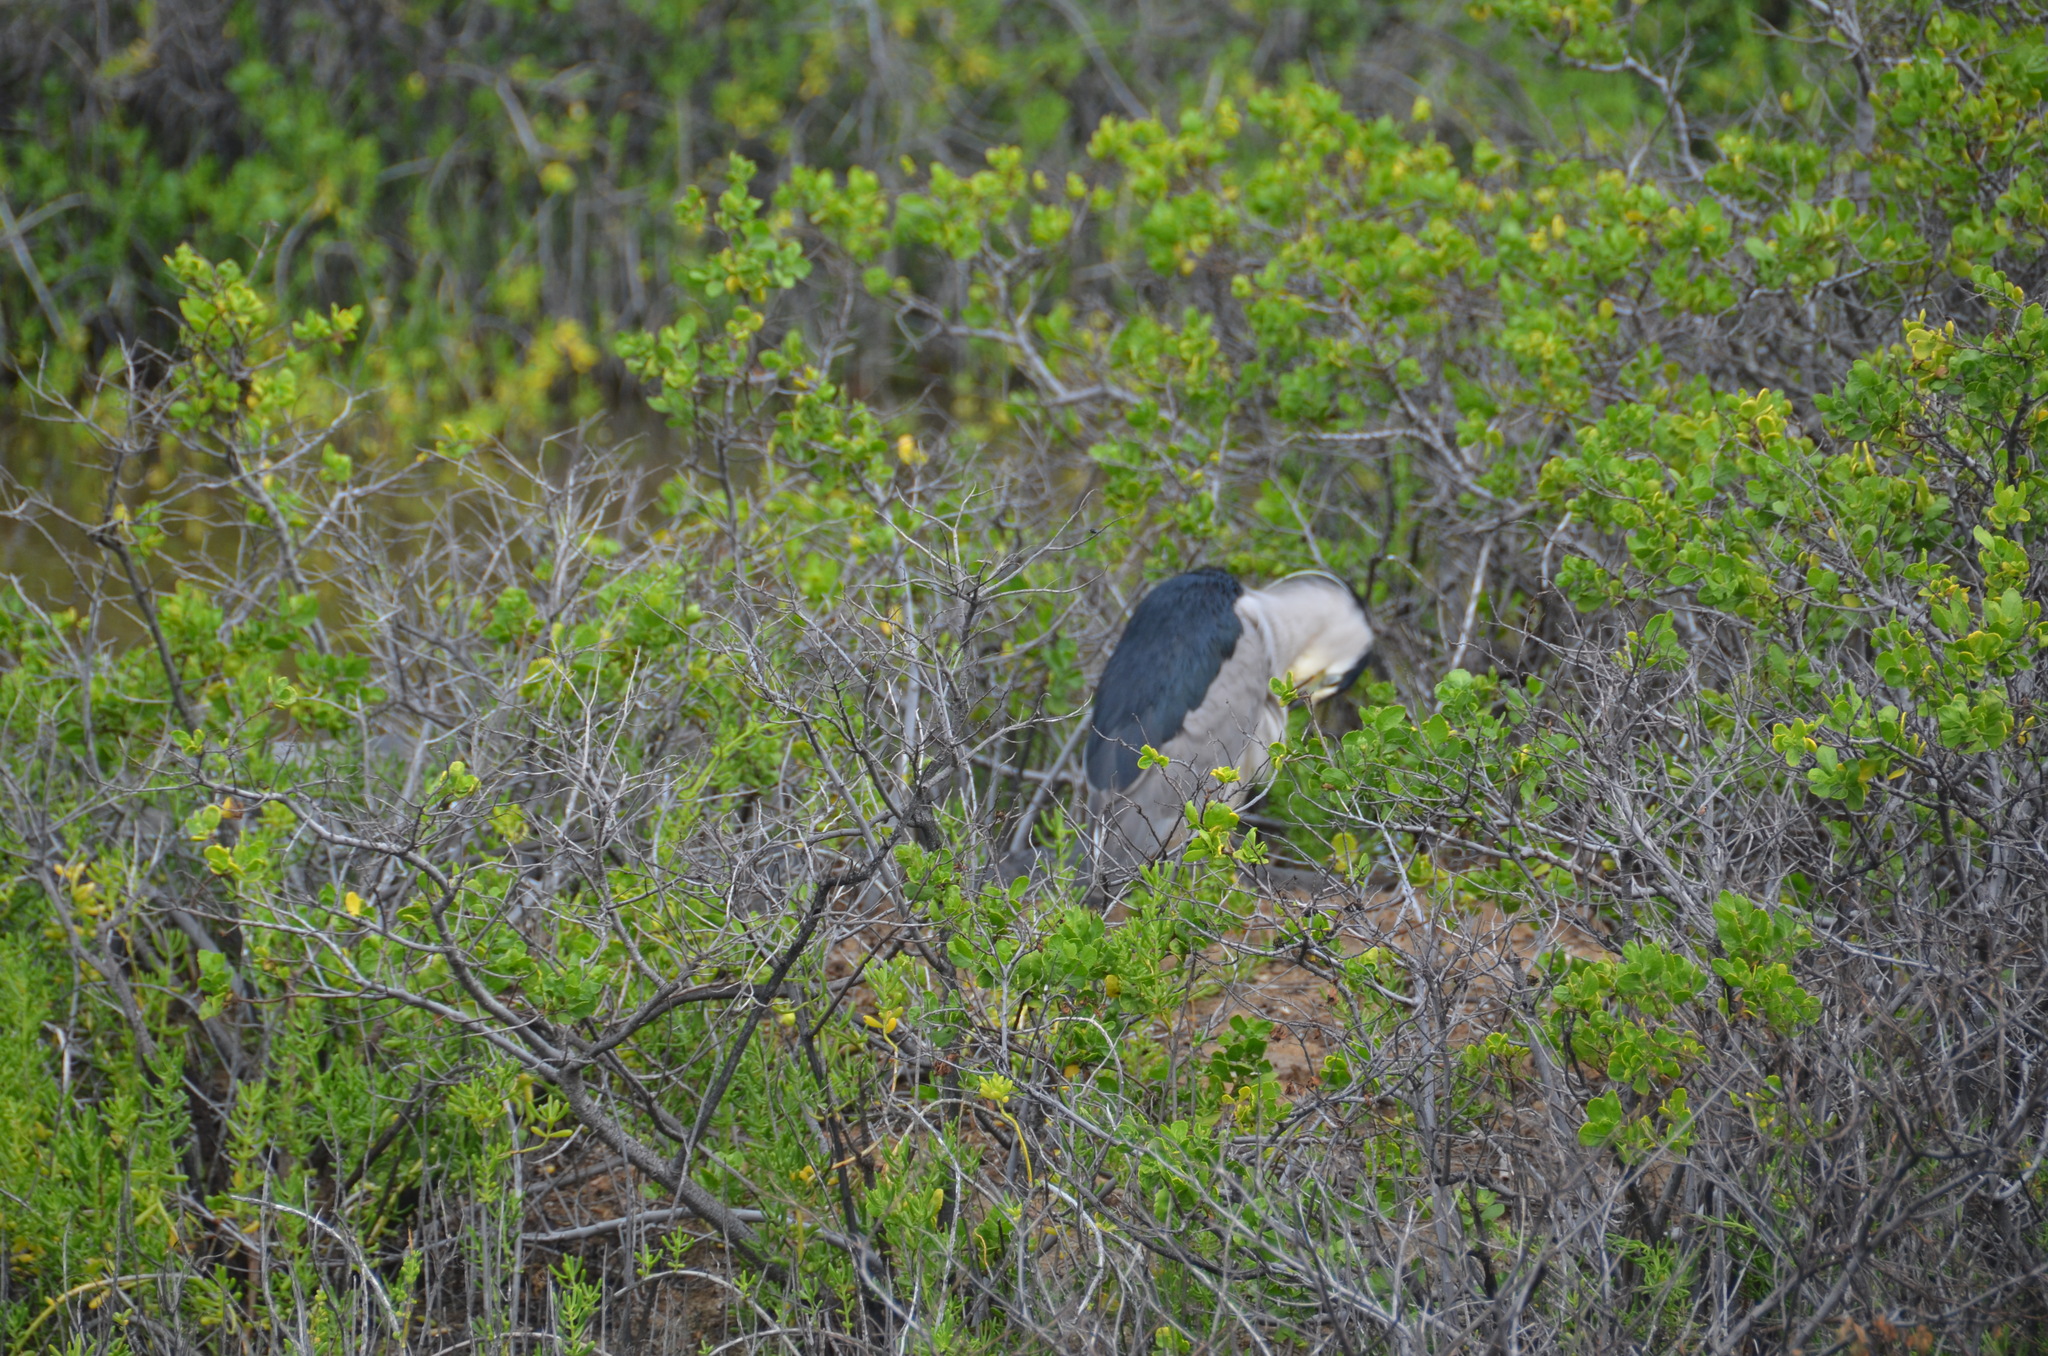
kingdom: Animalia
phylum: Chordata
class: Aves
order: Pelecaniformes
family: Ardeidae
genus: Nycticorax
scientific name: Nycticorax nycticorax
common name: Black-crowned night heron
